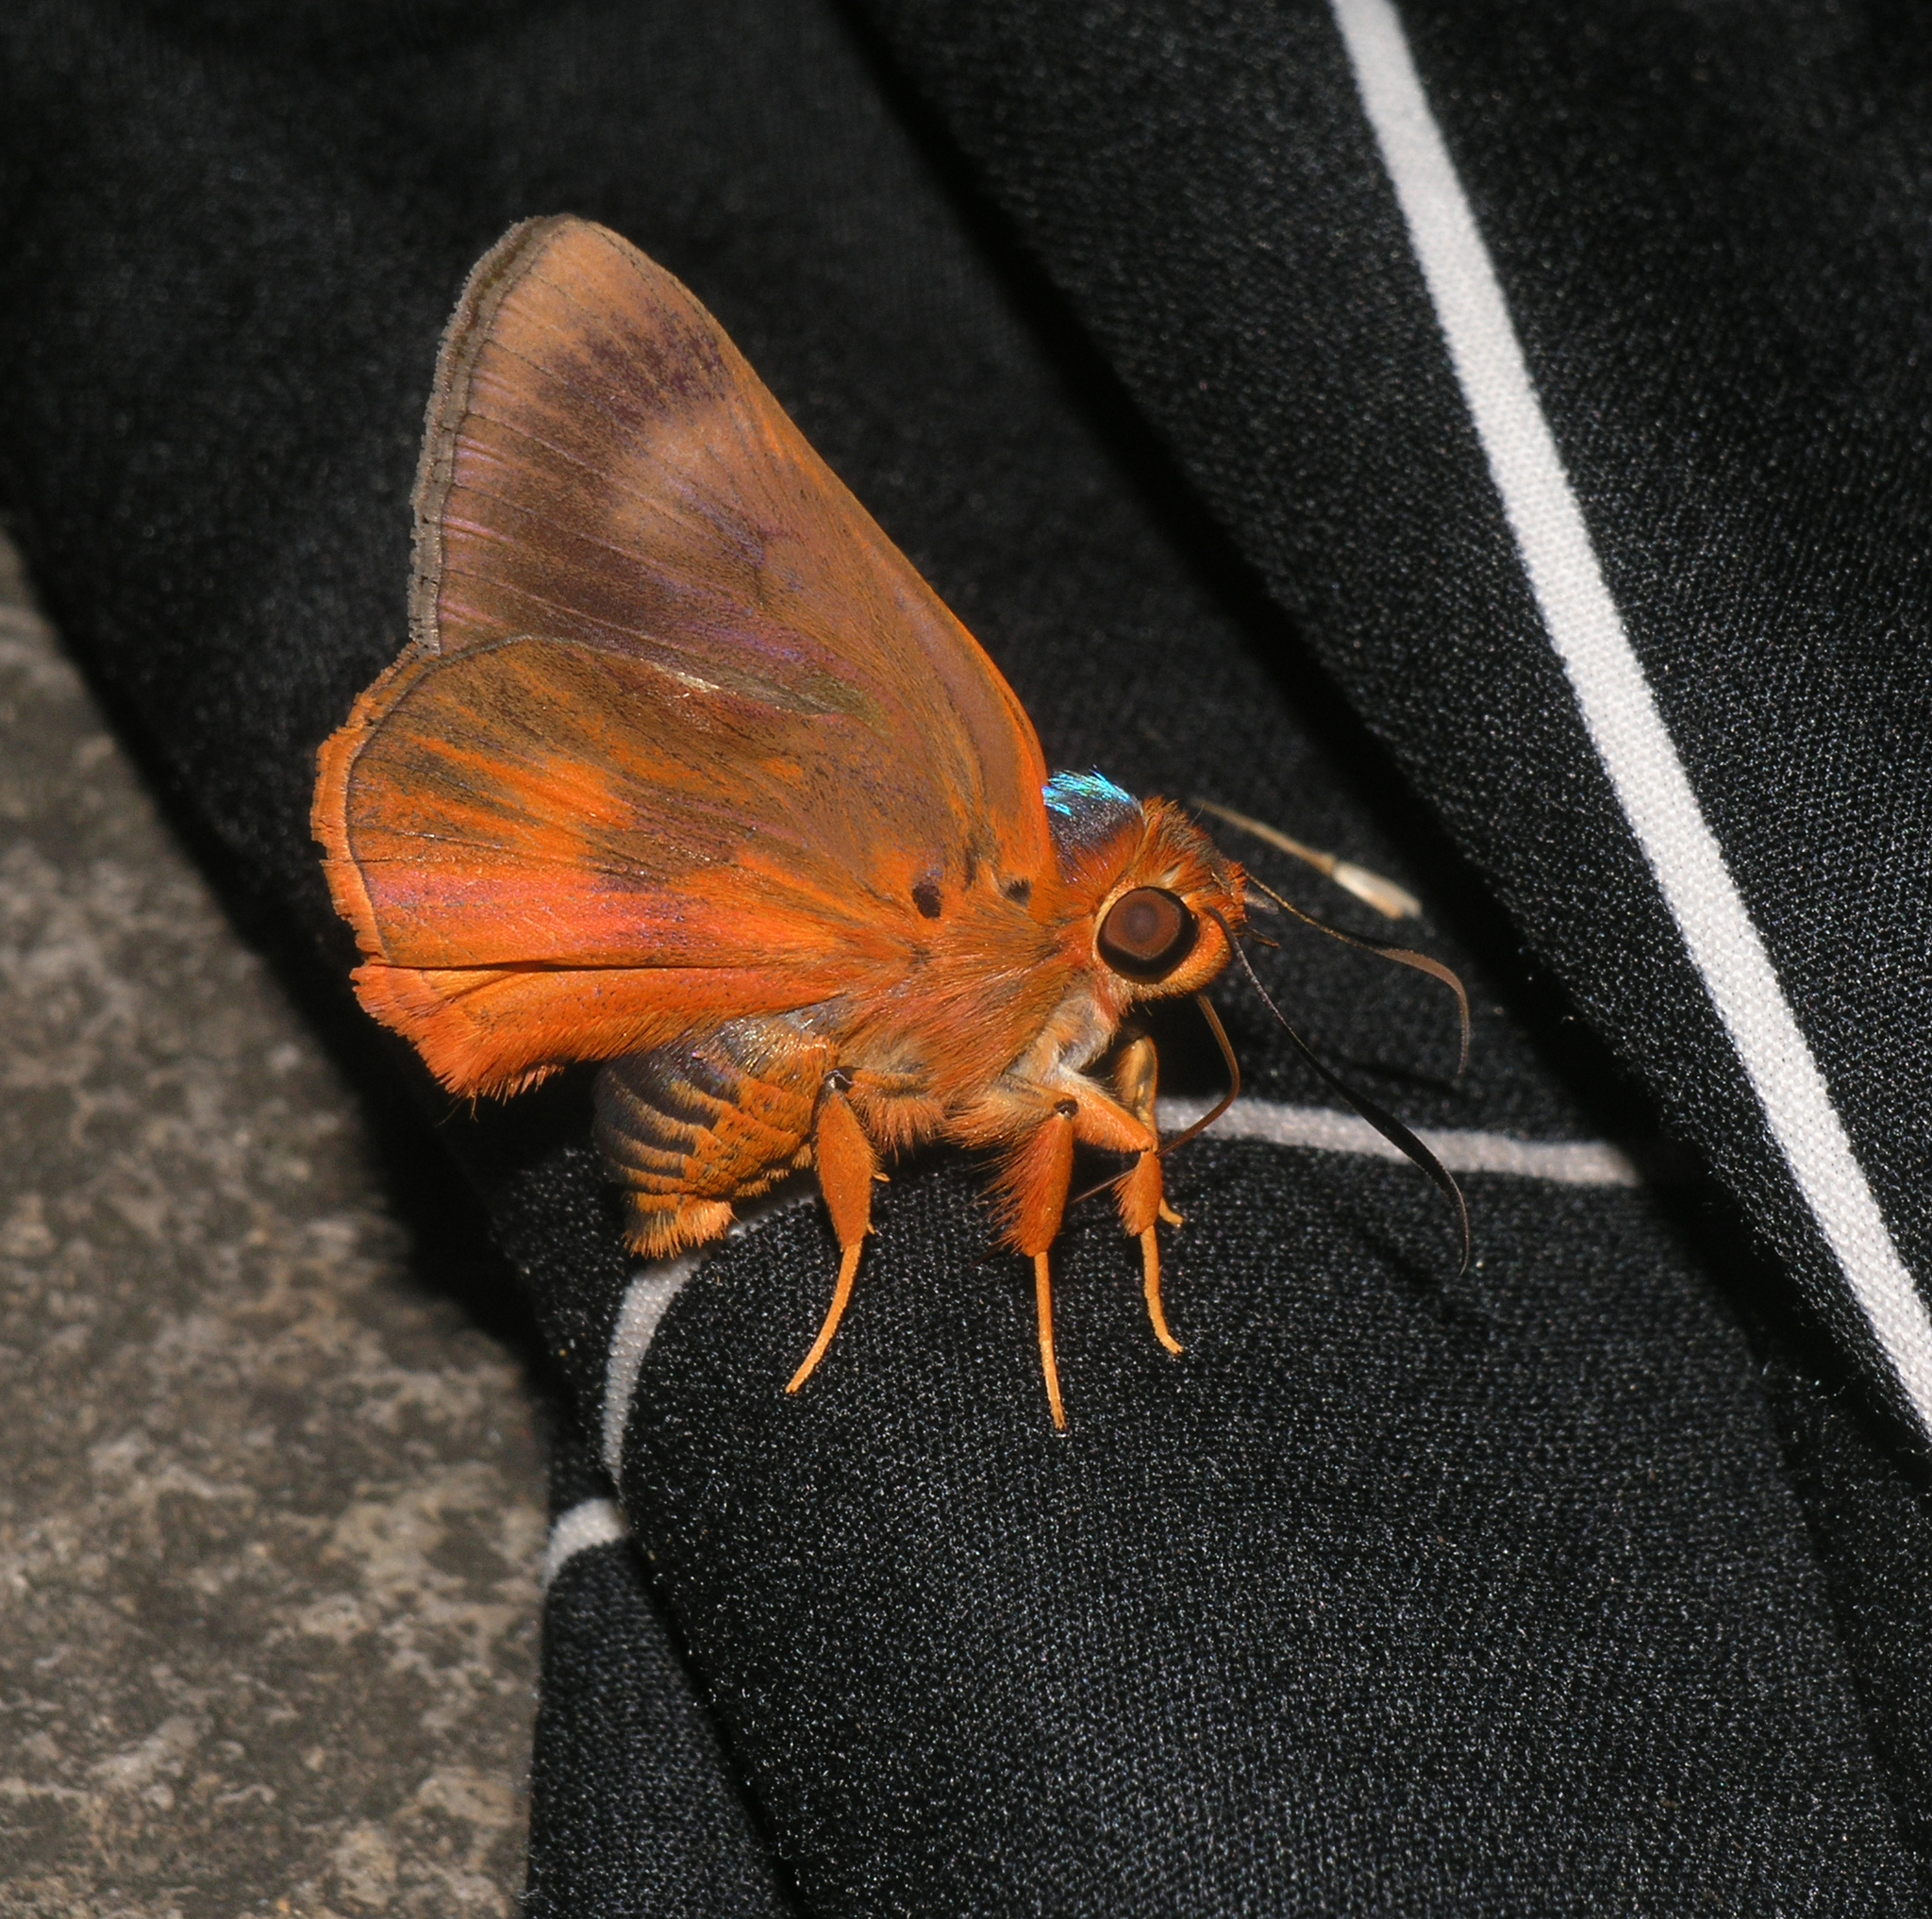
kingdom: Animalia
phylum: Arthropoda
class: Insecta
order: Lepidoptera
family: Hesperiidae
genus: Bibasis
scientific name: Bibasis oedipodea
